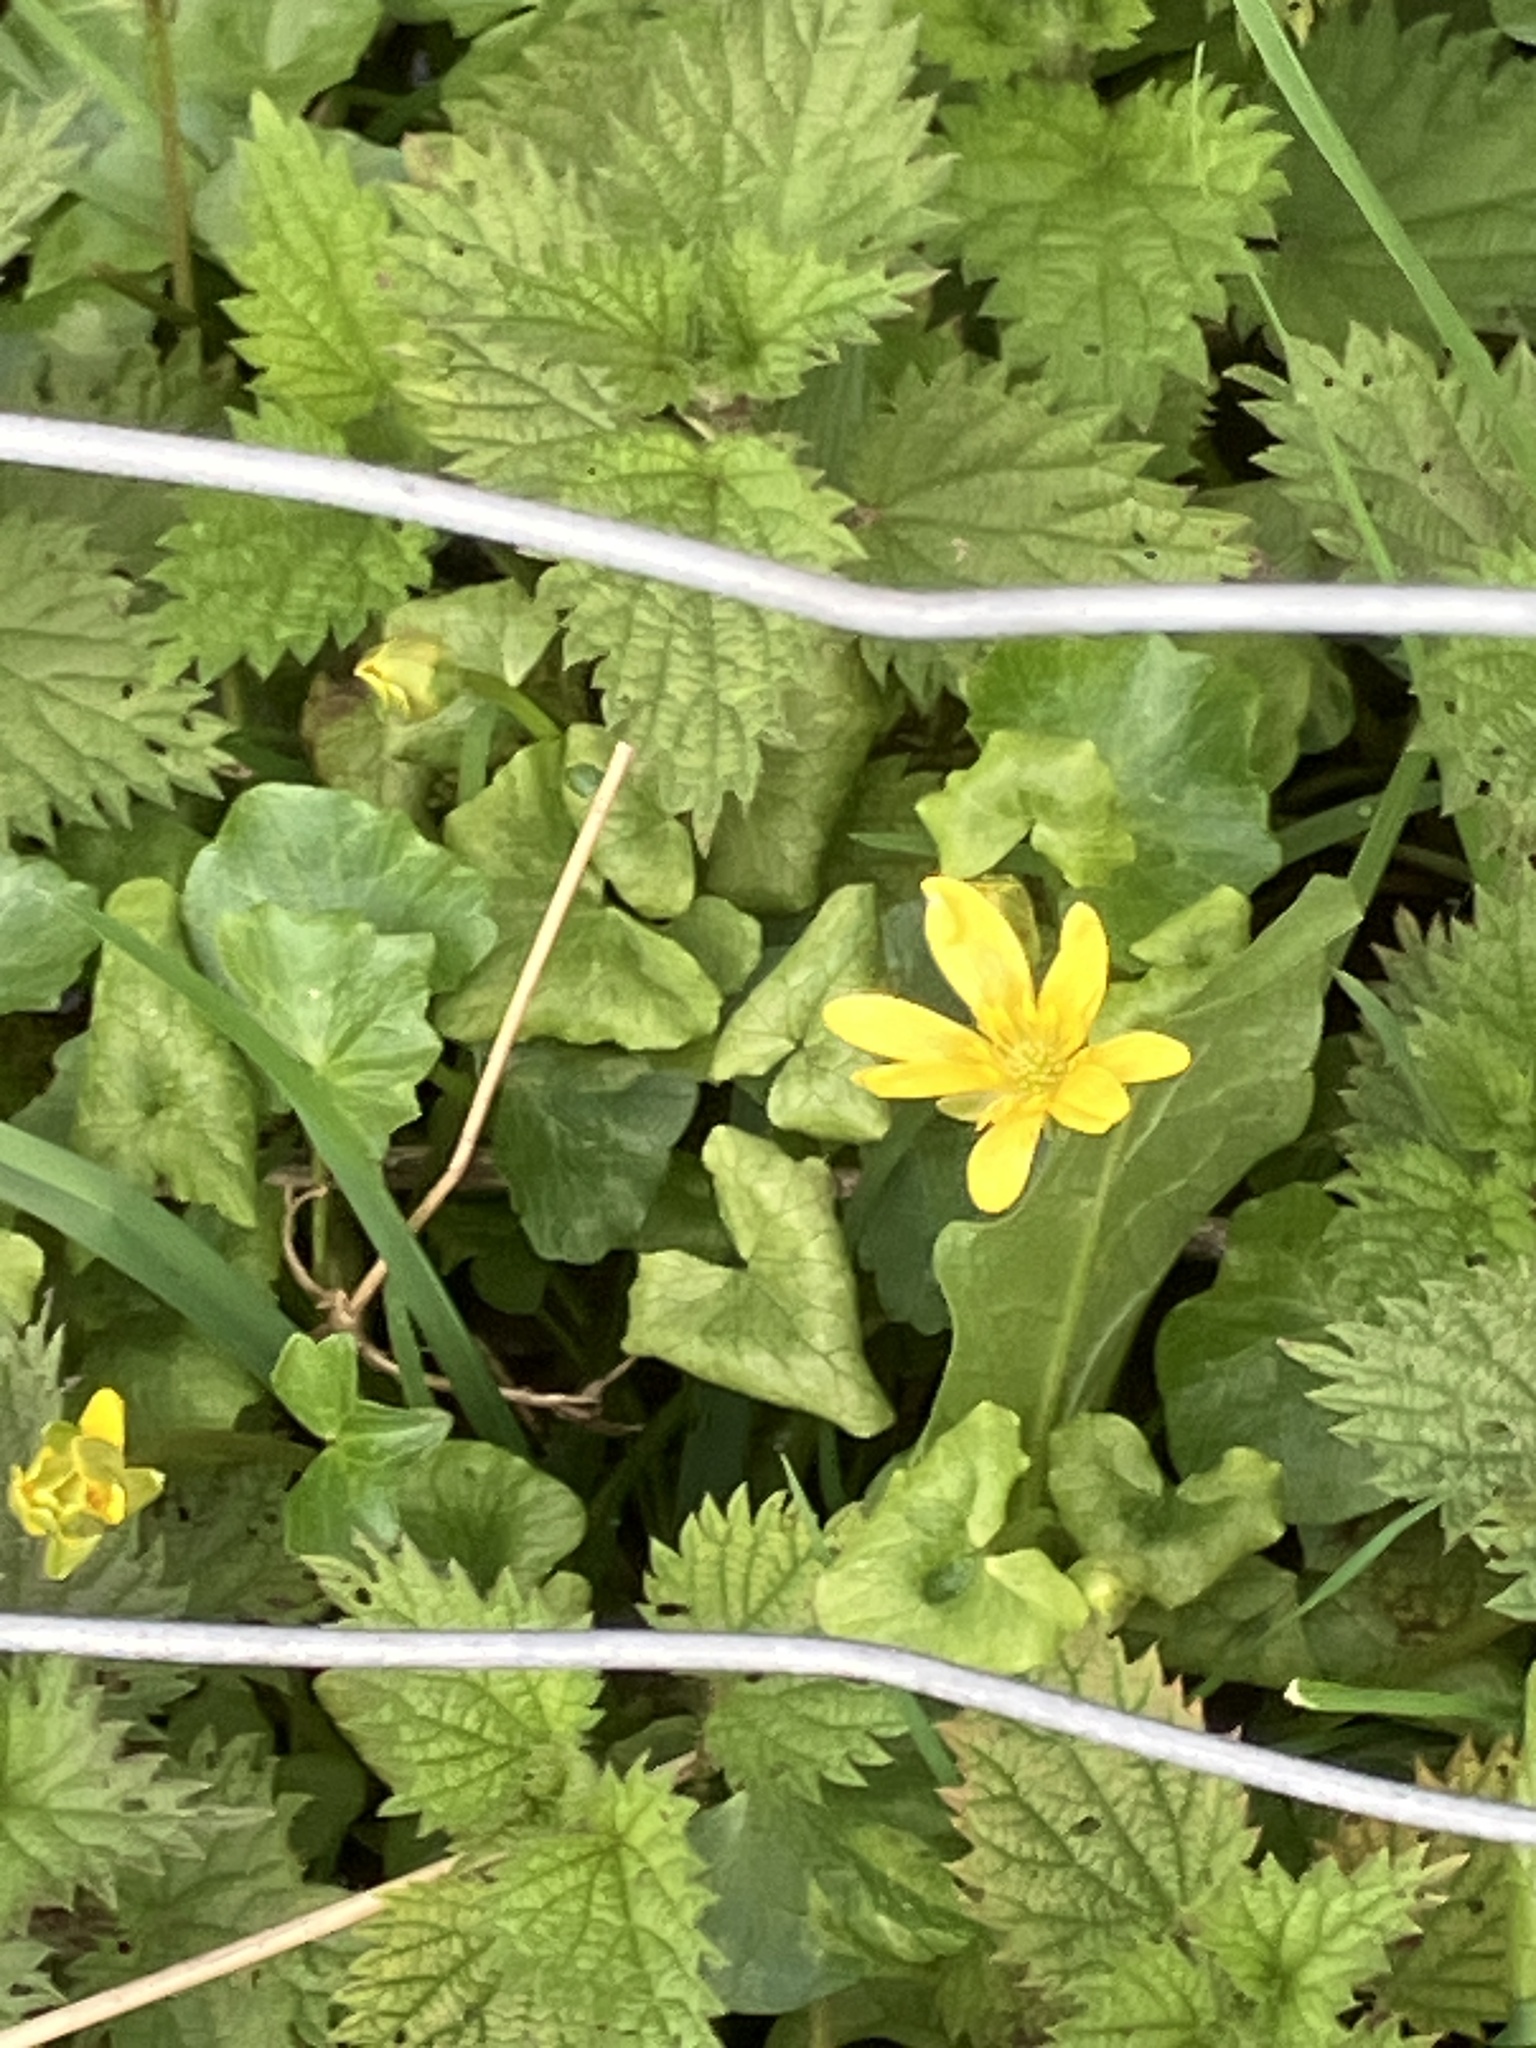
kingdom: Plantae
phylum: Tracheophyta
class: Magnoliopsida
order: Ranunculales
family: Ranunculaceae
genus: Ficaria
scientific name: Ficaria verna
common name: Lesser celandine
